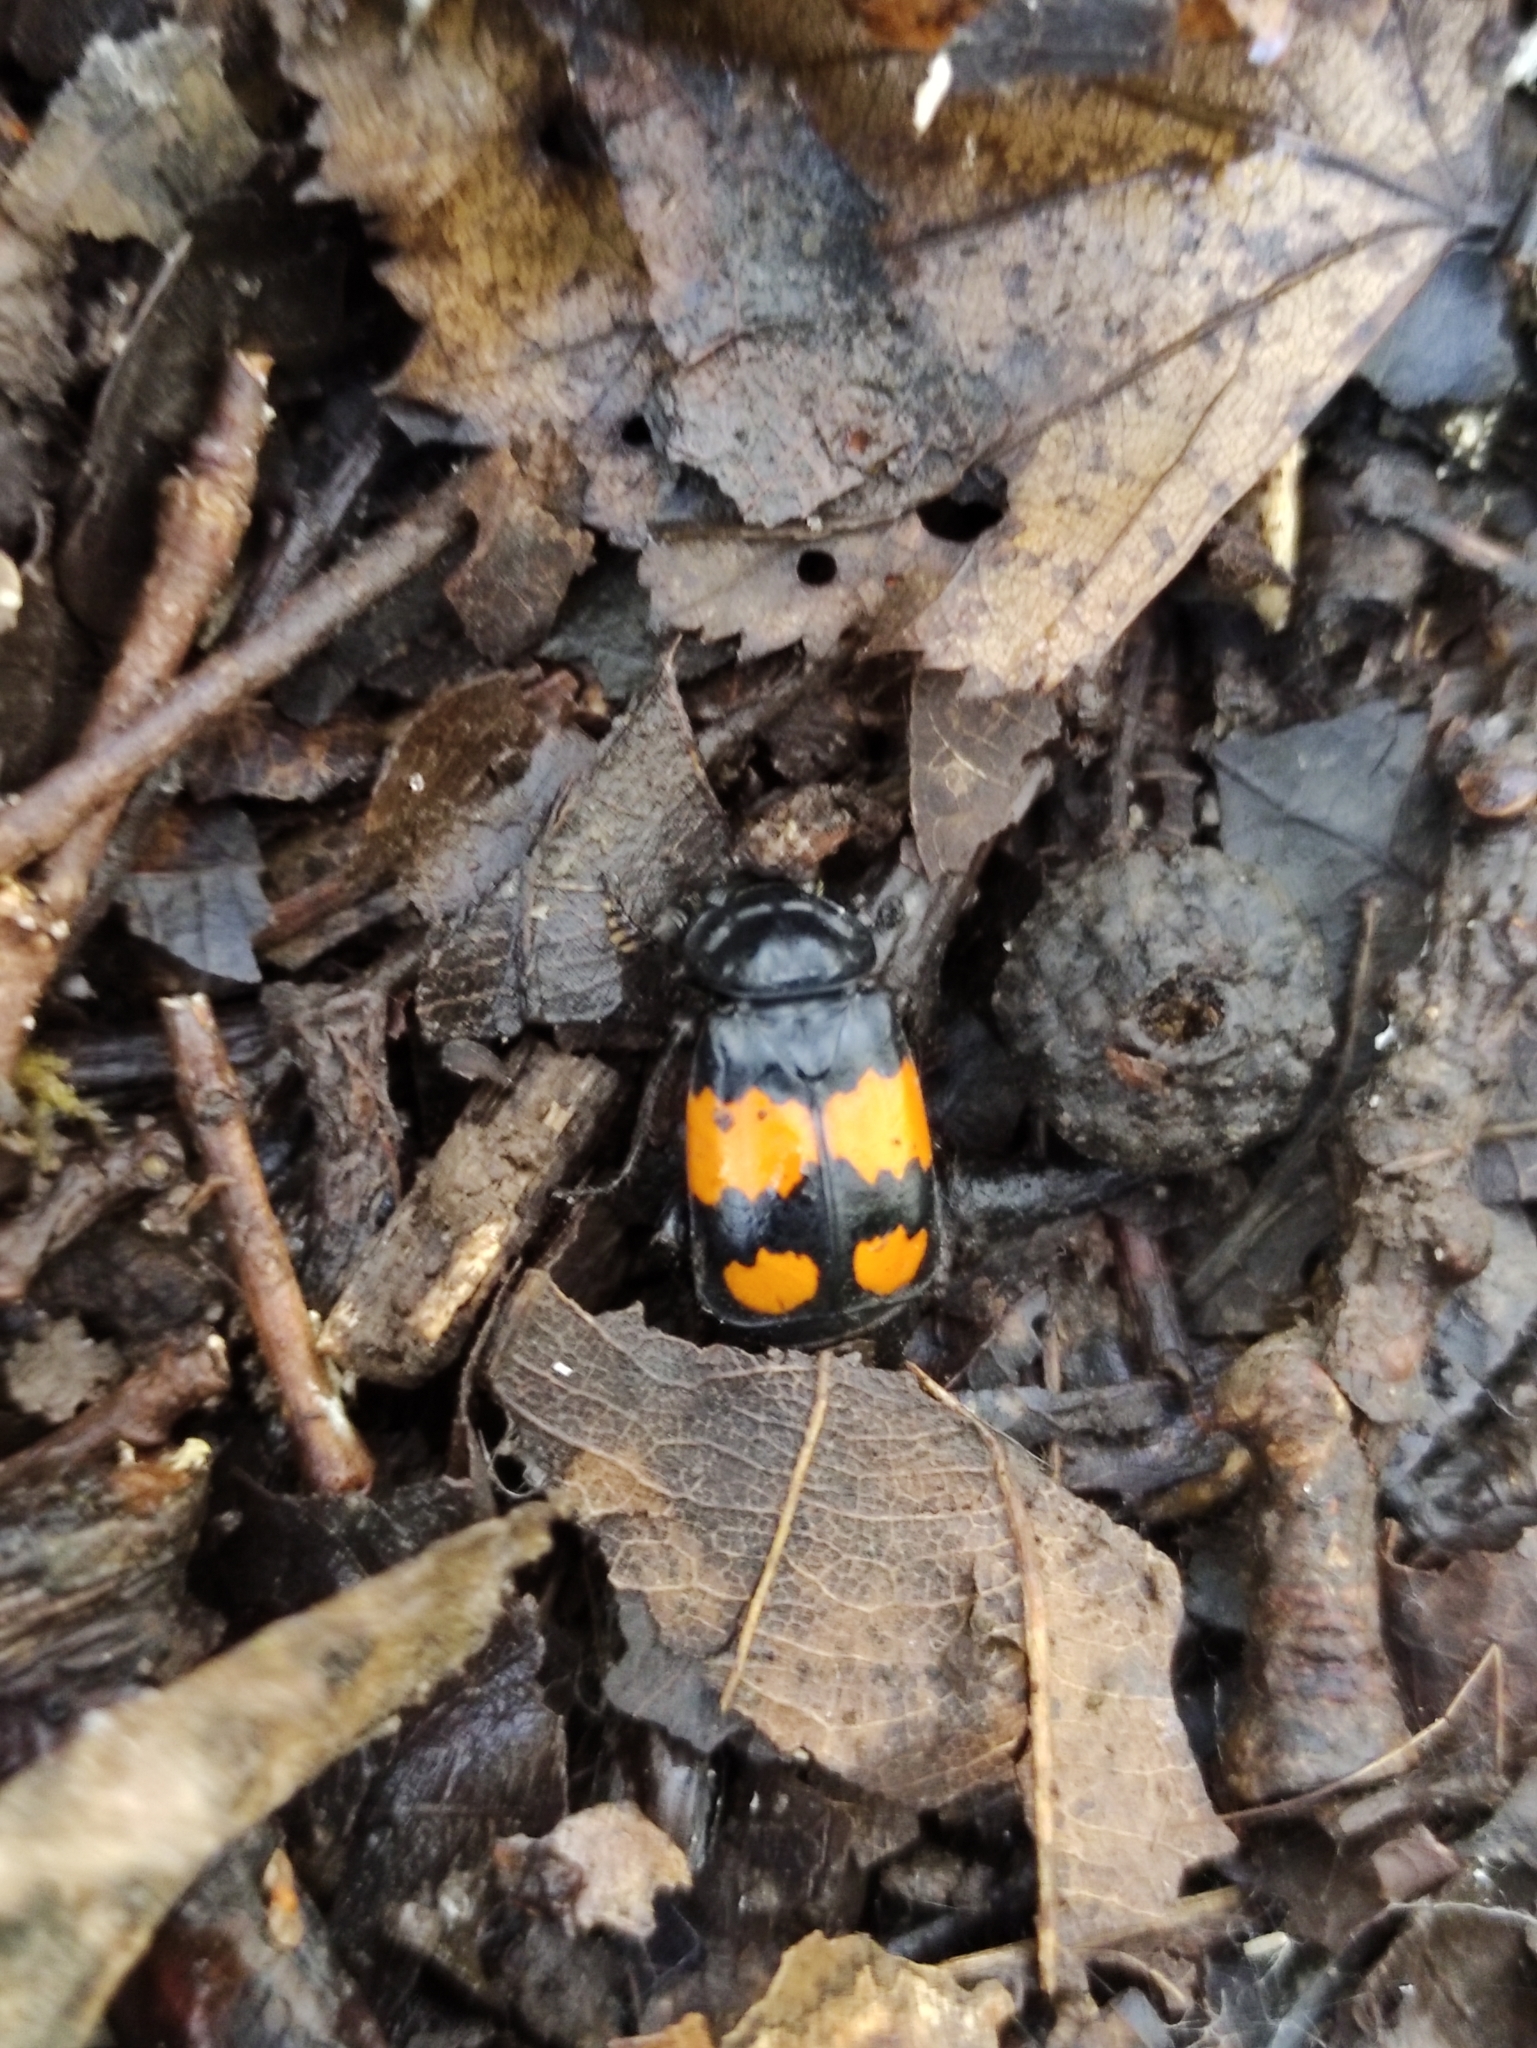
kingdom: Animalia
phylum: Arthropoda
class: Insecta
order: Coleoptera
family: Staphylinidae
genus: Nicrophorus
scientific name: Nicrophorus vespilloides
